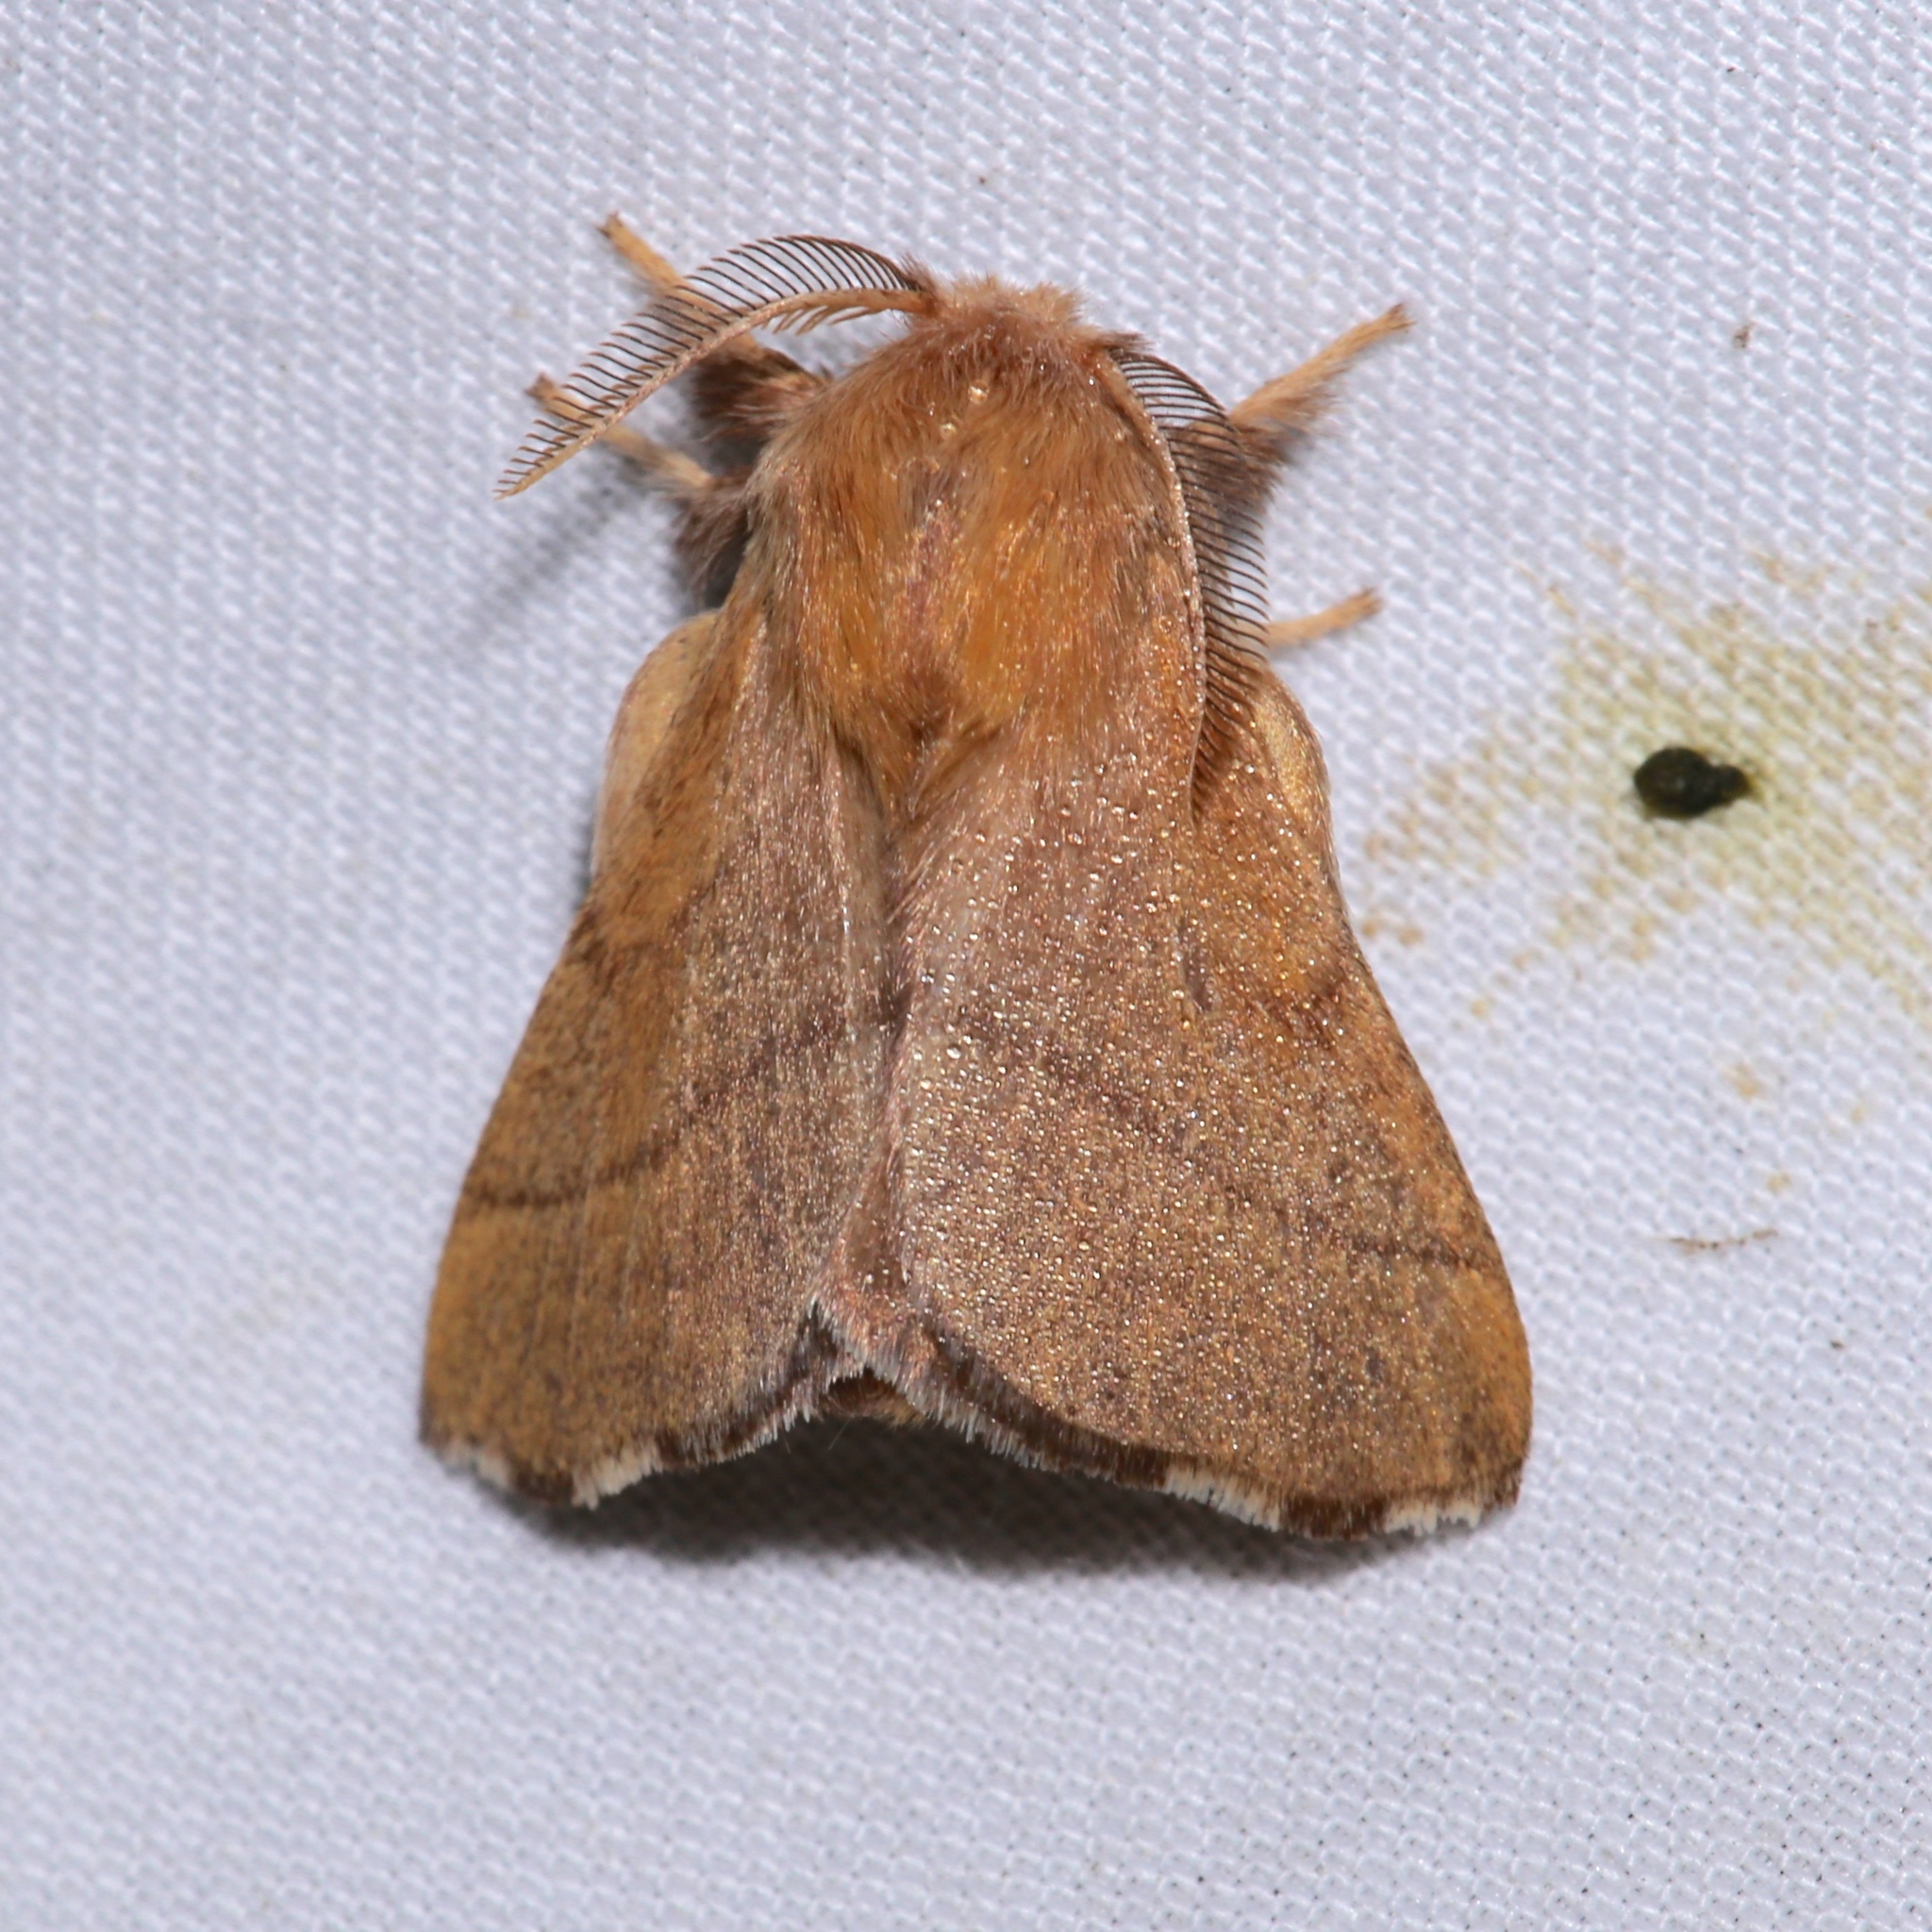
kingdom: Animalia
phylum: Arthropoda
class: Insecta
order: Lepidoptera
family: Lasiocampidae
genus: Malacosoma
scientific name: Malacosoma disstria
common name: Forest tent caterpillar
